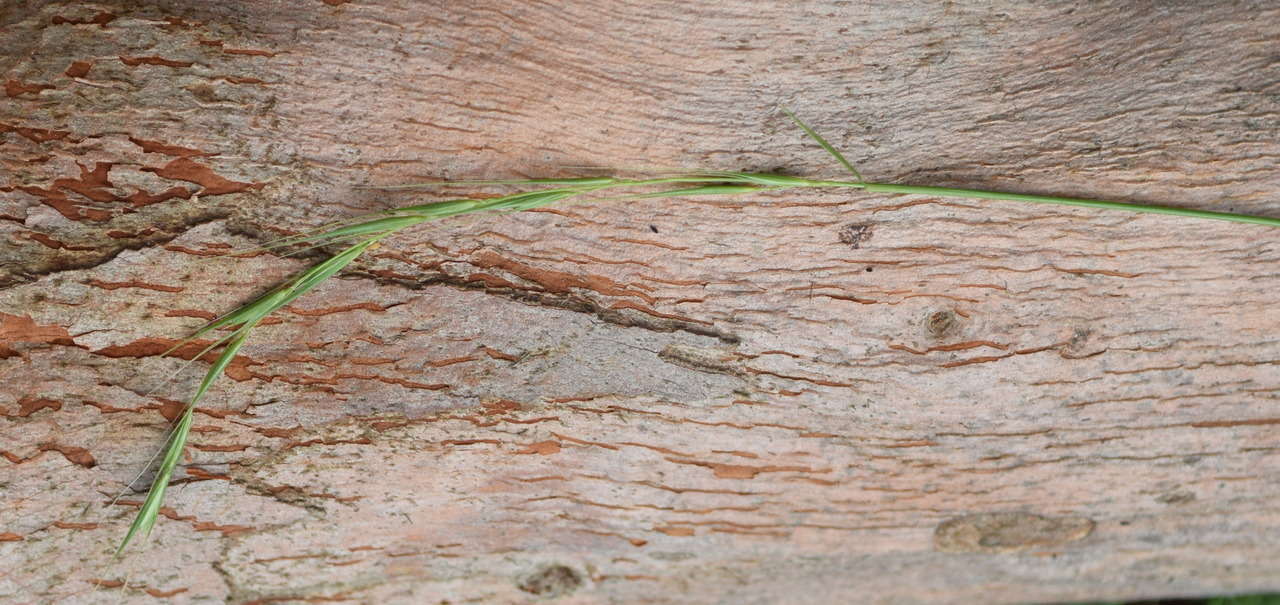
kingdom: Plantae
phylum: Tracheophyta
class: Liliopsida
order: Poales
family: Poaceae
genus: Microlaena
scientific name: Microlaena stipoides
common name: Meadow ricegrass
